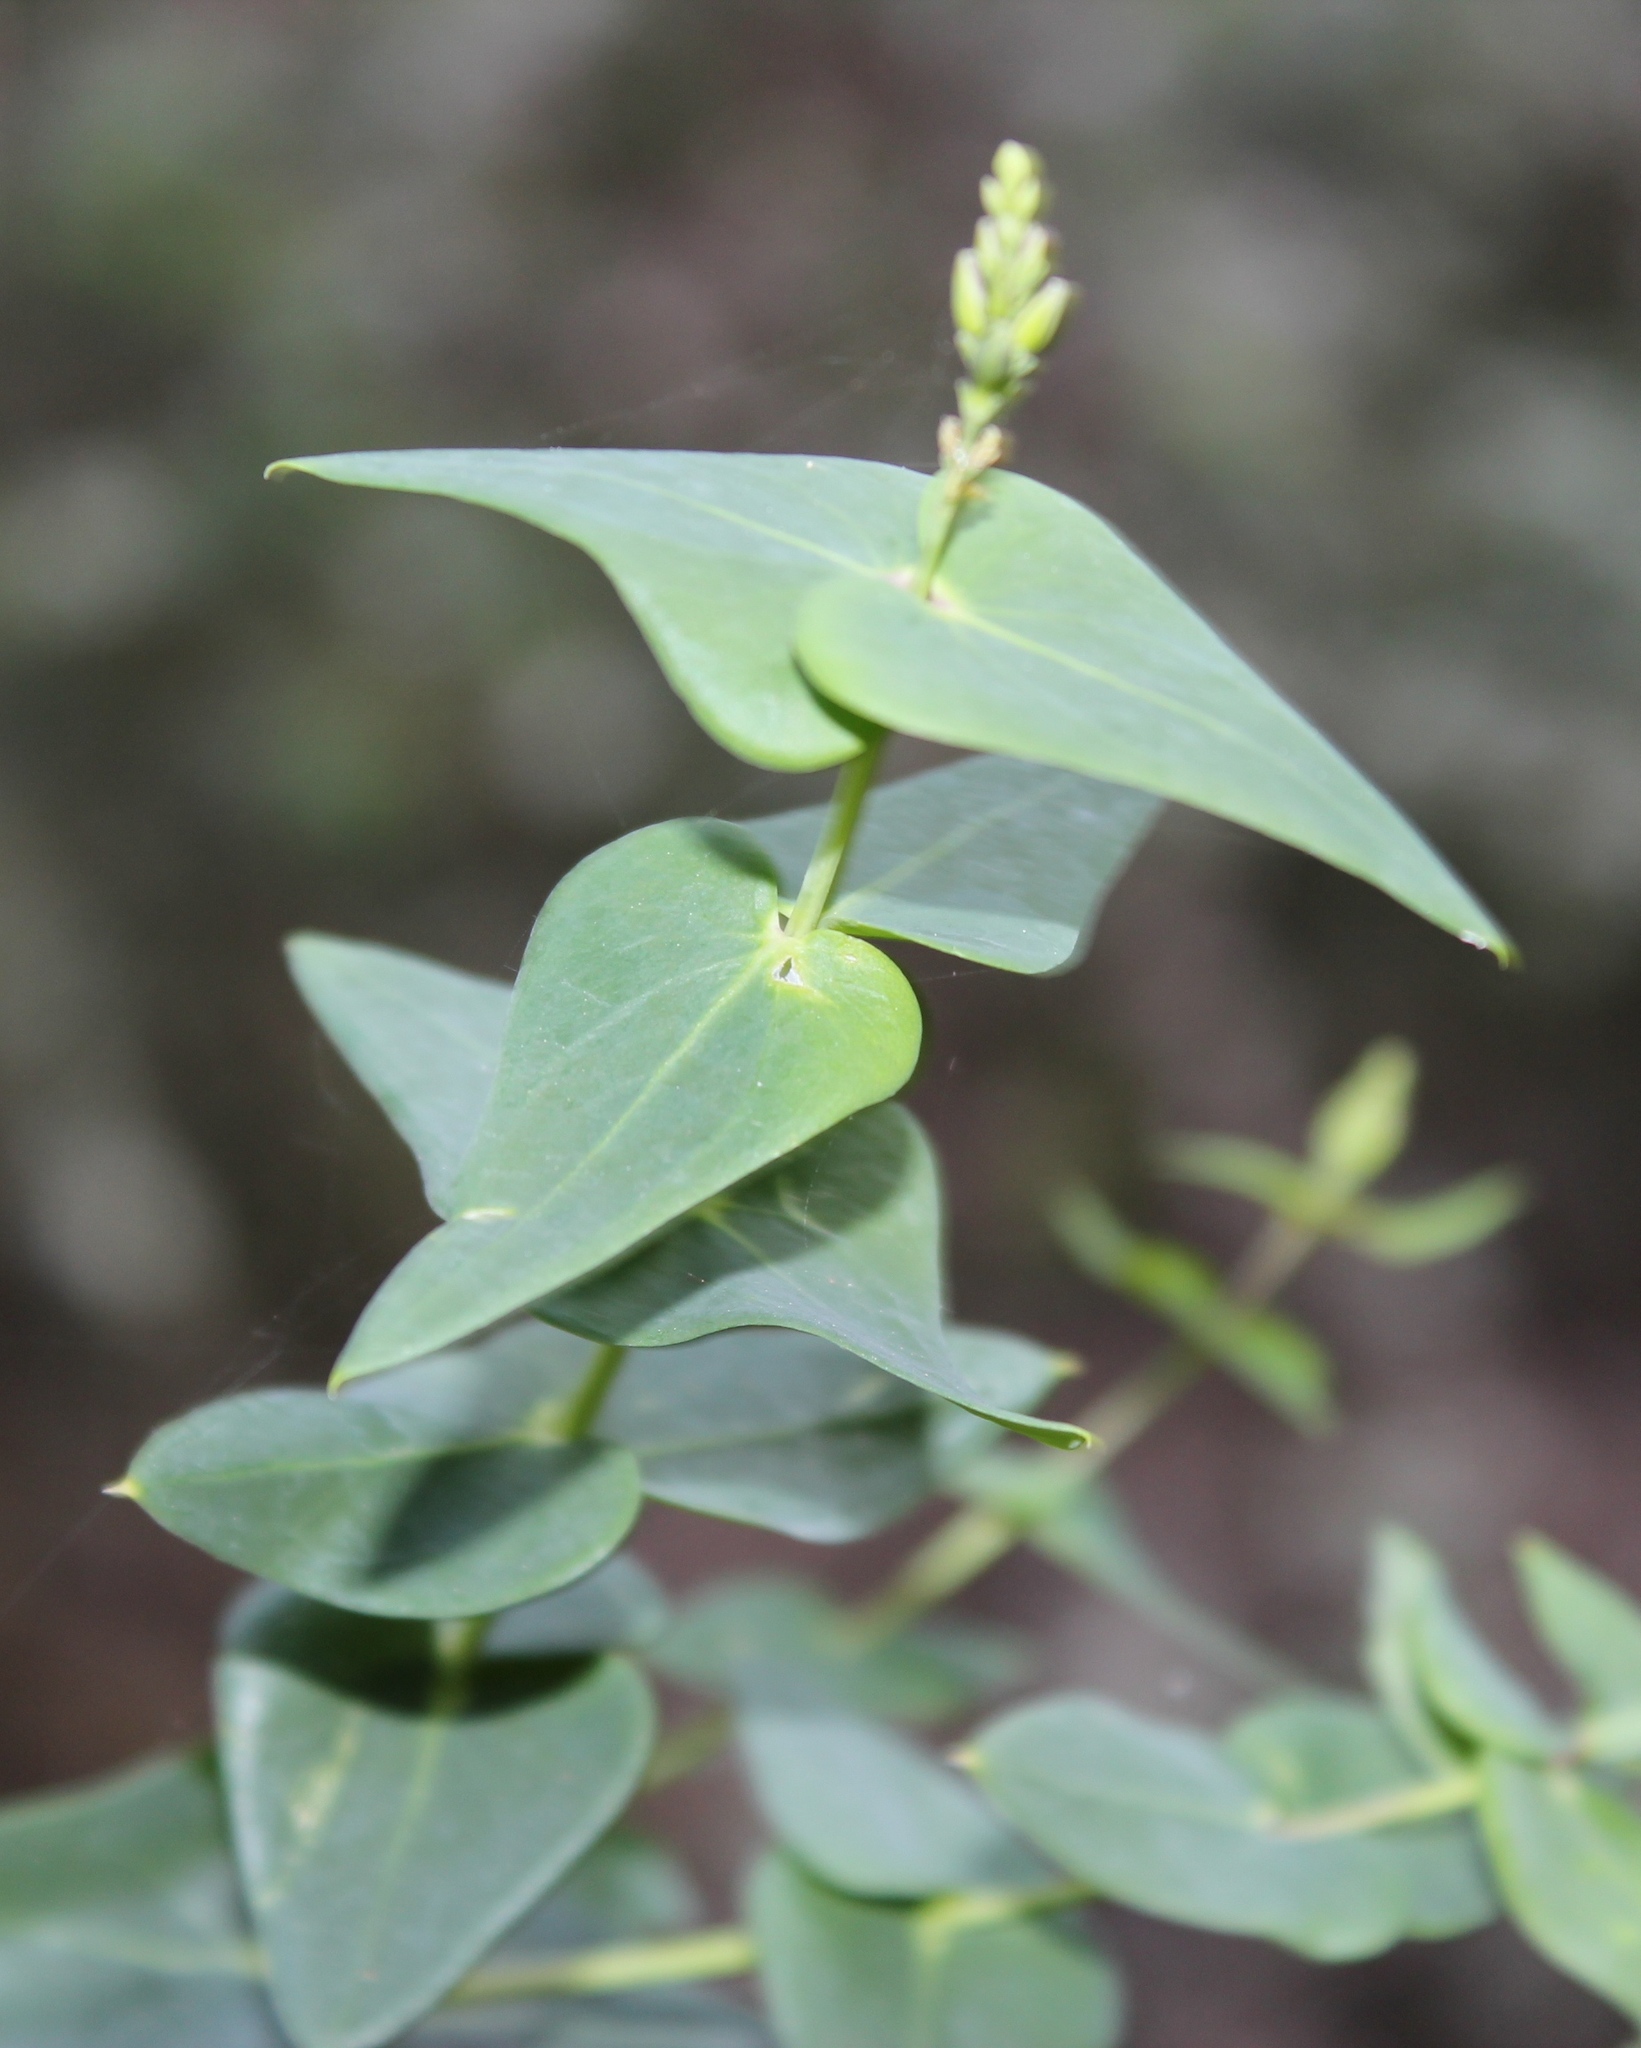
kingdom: Plantae
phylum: Tracheophyta
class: Magnoliopsida
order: Fabales
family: Polygalaceae
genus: Polygala
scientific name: Polygala fruticosa
